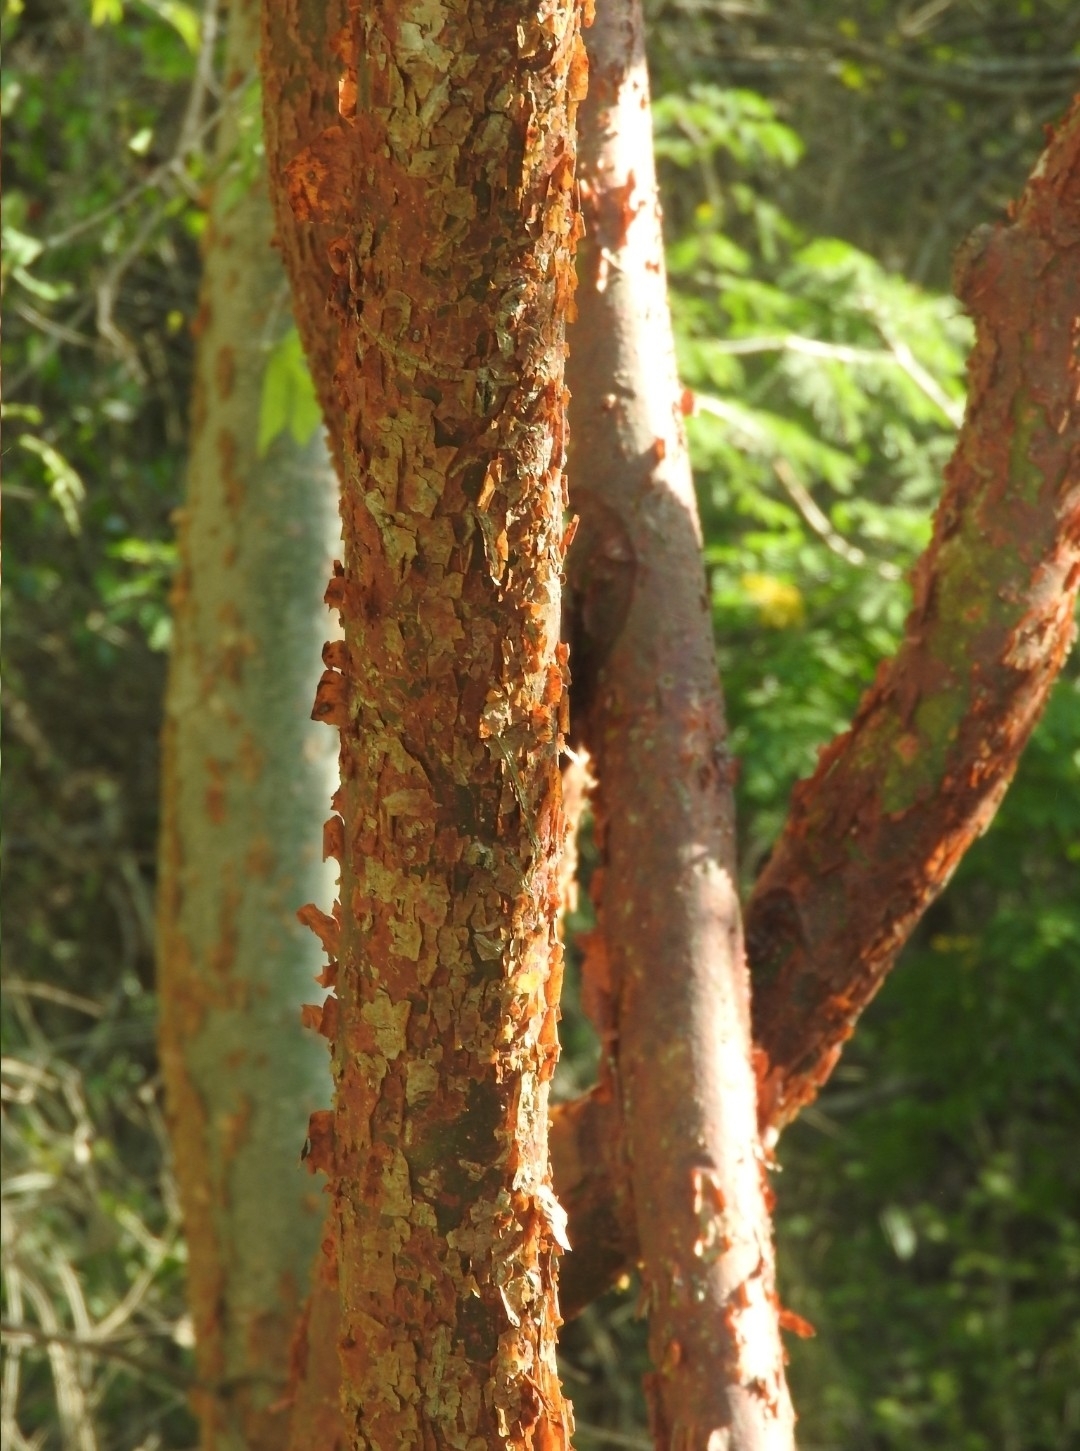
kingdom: Plantae
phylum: Tracheophyta
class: Magnoliopsida
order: Sapindales
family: Burseraceae
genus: Bursera
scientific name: Bursera simaruba
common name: Turpentine tree
